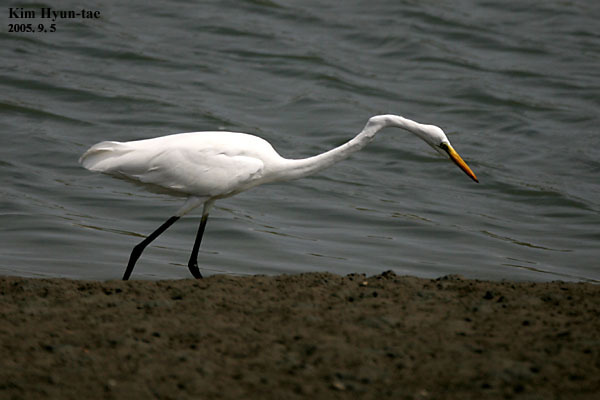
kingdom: Animalia
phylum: Chordata
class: Aves
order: Pelecaniformes
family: Ardeidae
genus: Ardea
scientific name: Ardea alba
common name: Great egret
